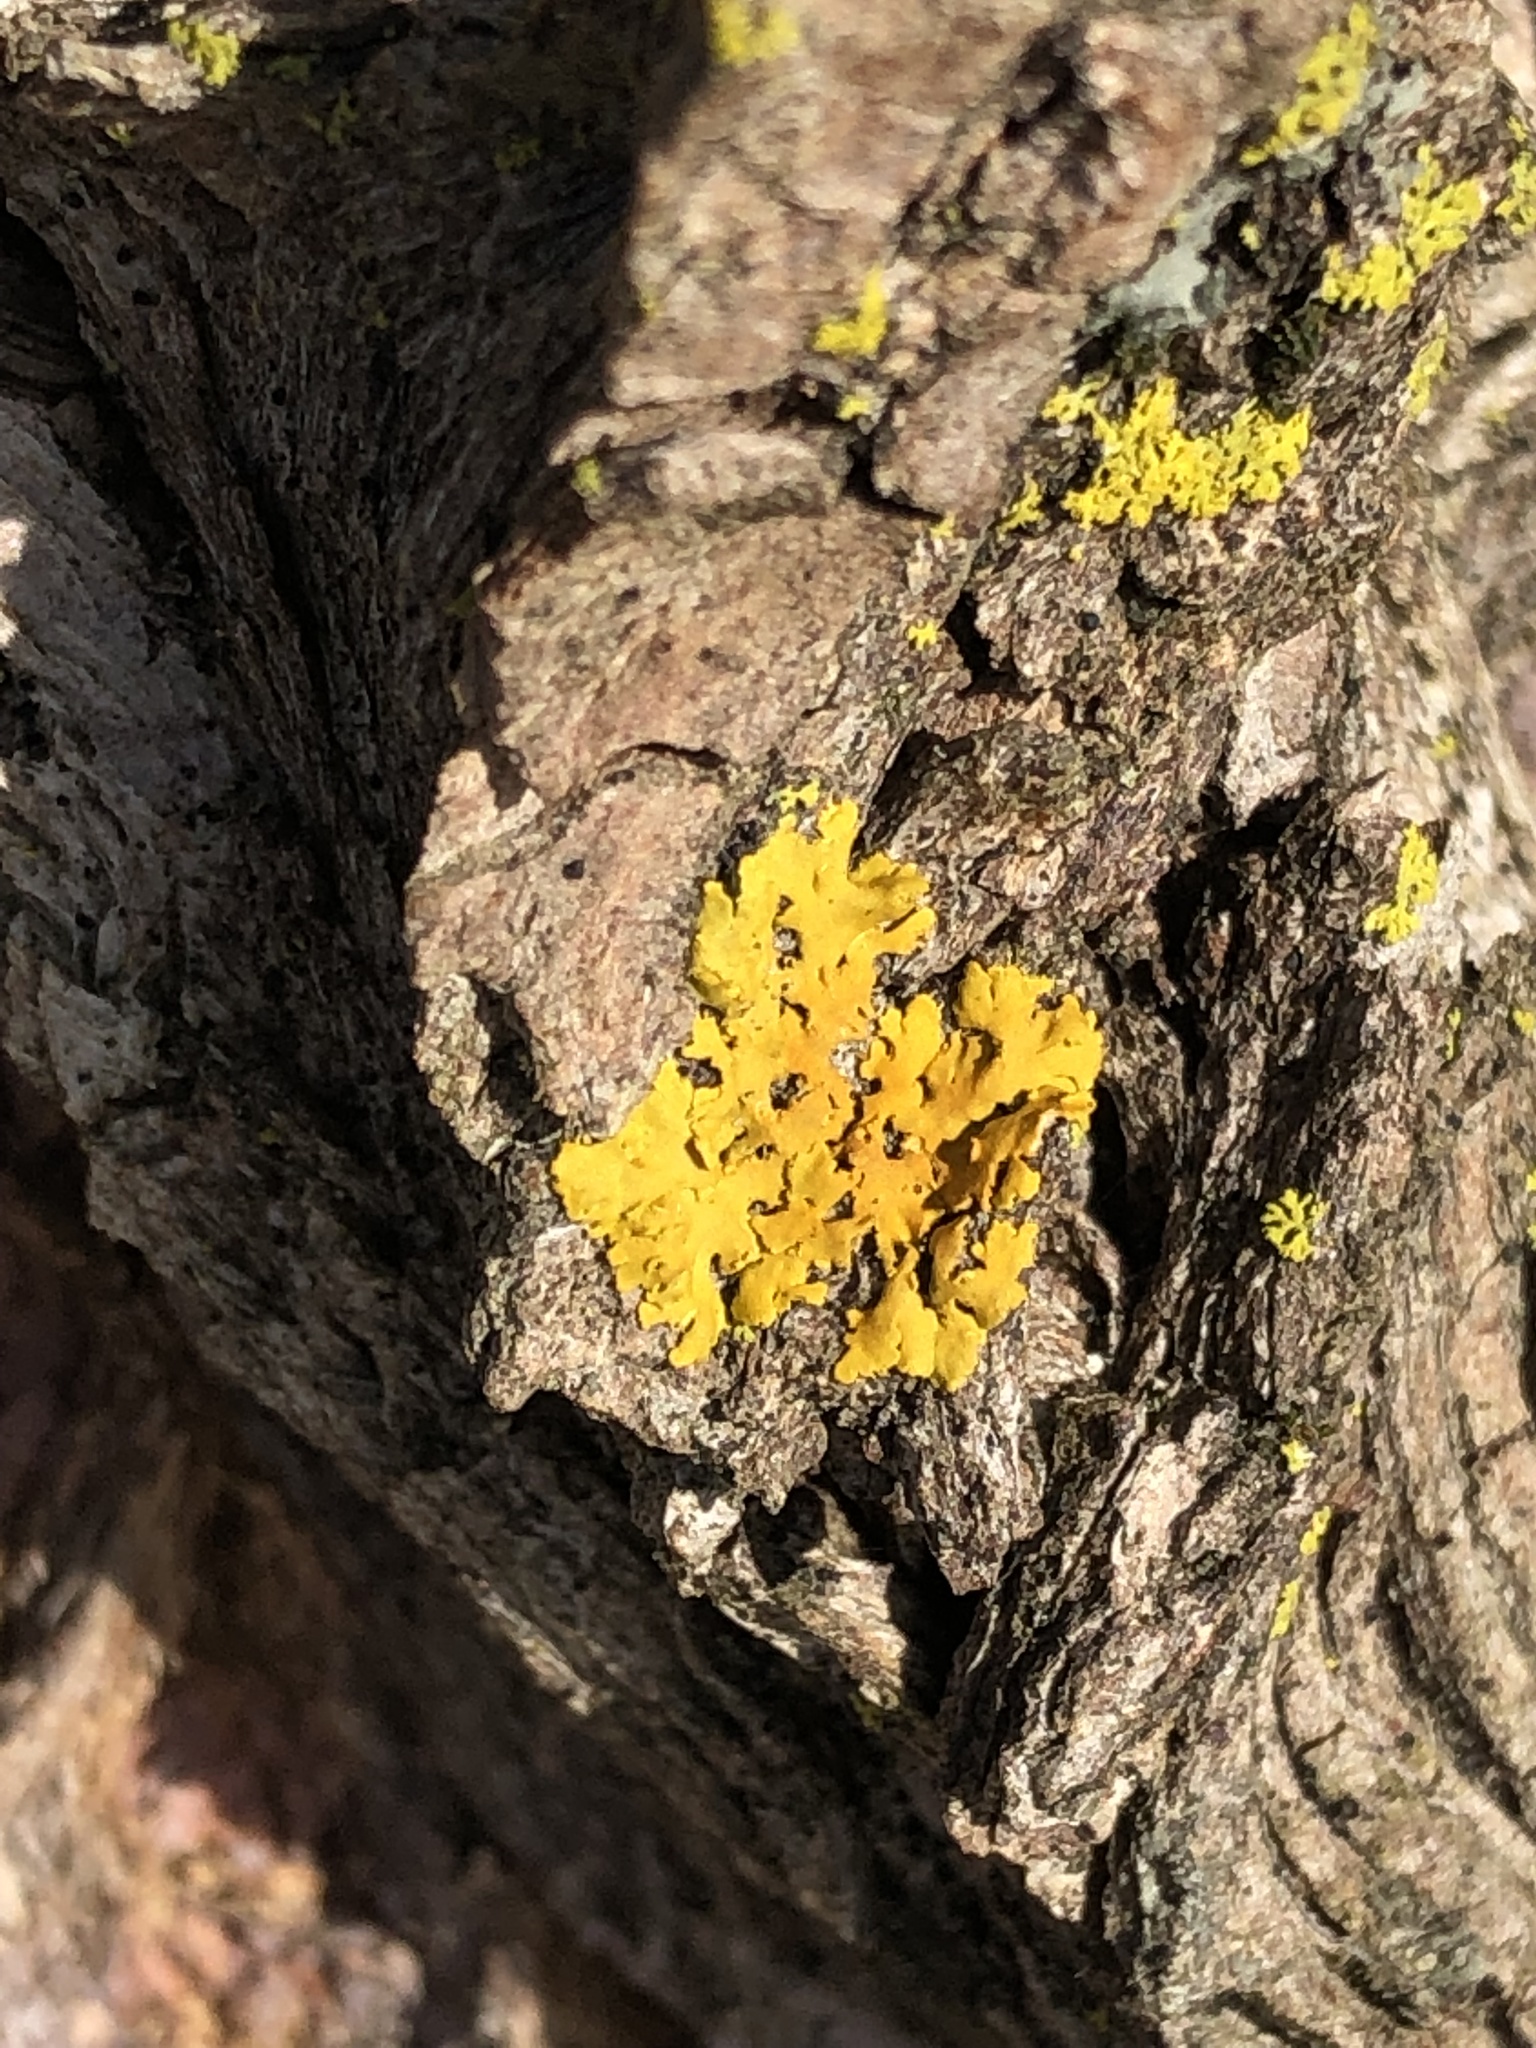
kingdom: Fungi
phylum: Ascomycota
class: Lecanoromycetes
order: Teloschistales
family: Teloschistaceae
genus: Oxneria
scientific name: Oxneria fallax
